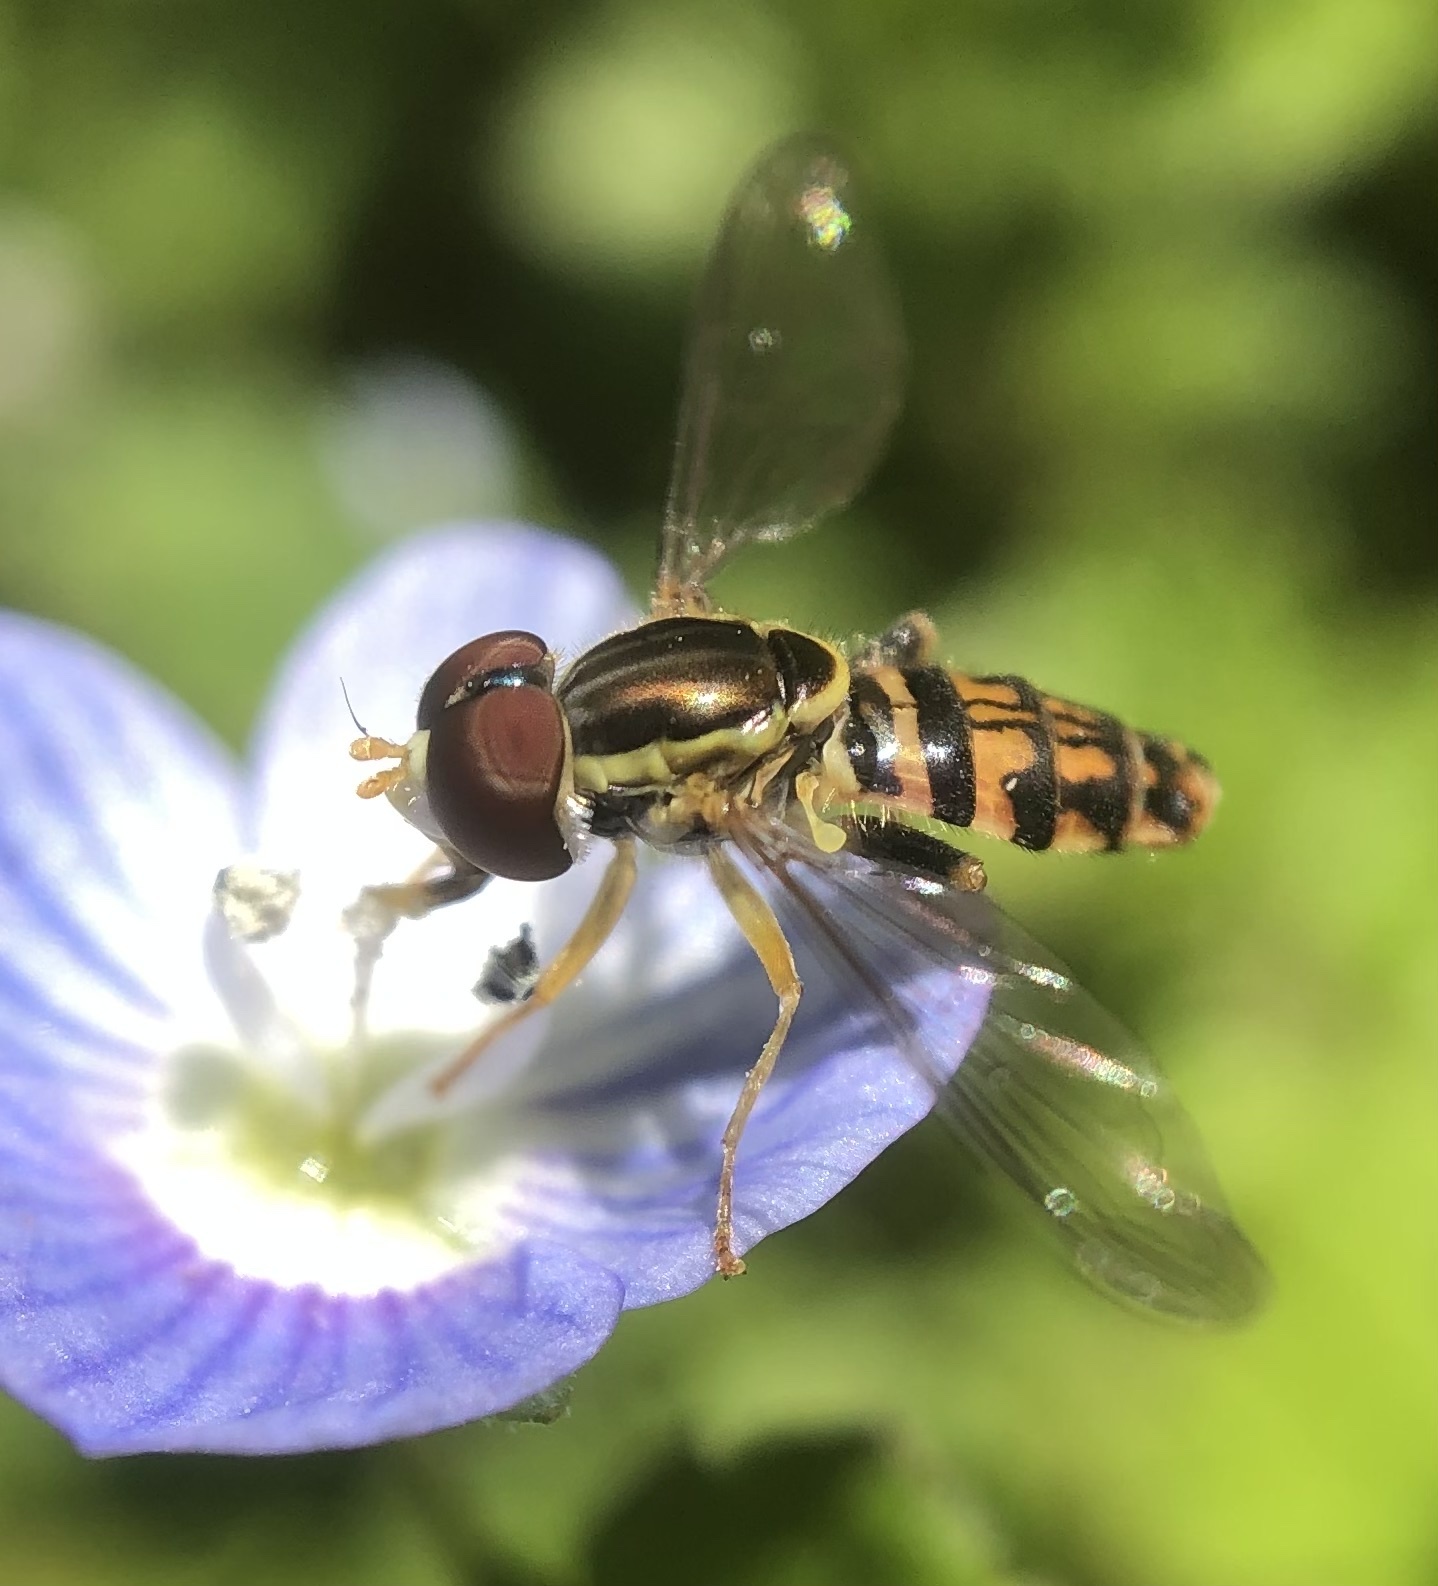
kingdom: Animalia
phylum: Arthropoda
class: Insecta
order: Diptera
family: Syrphidae
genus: Toxomerus
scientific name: Toxomerus geminatus
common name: Eastern calligrapher
